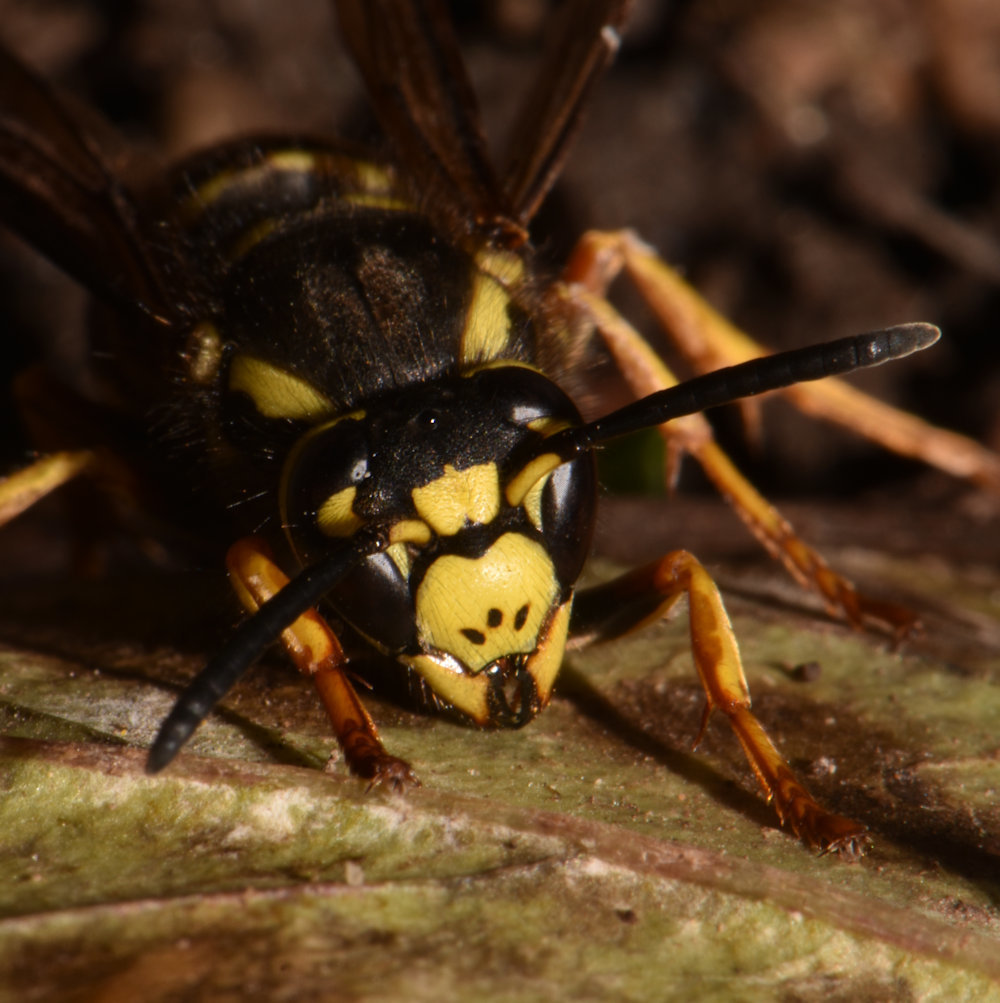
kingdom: Animalia
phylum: Arthropoda
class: Insecta
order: Hymenoptera
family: Vespidae
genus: Vespula
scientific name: Vespula vidua
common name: Widow yellowjacket
